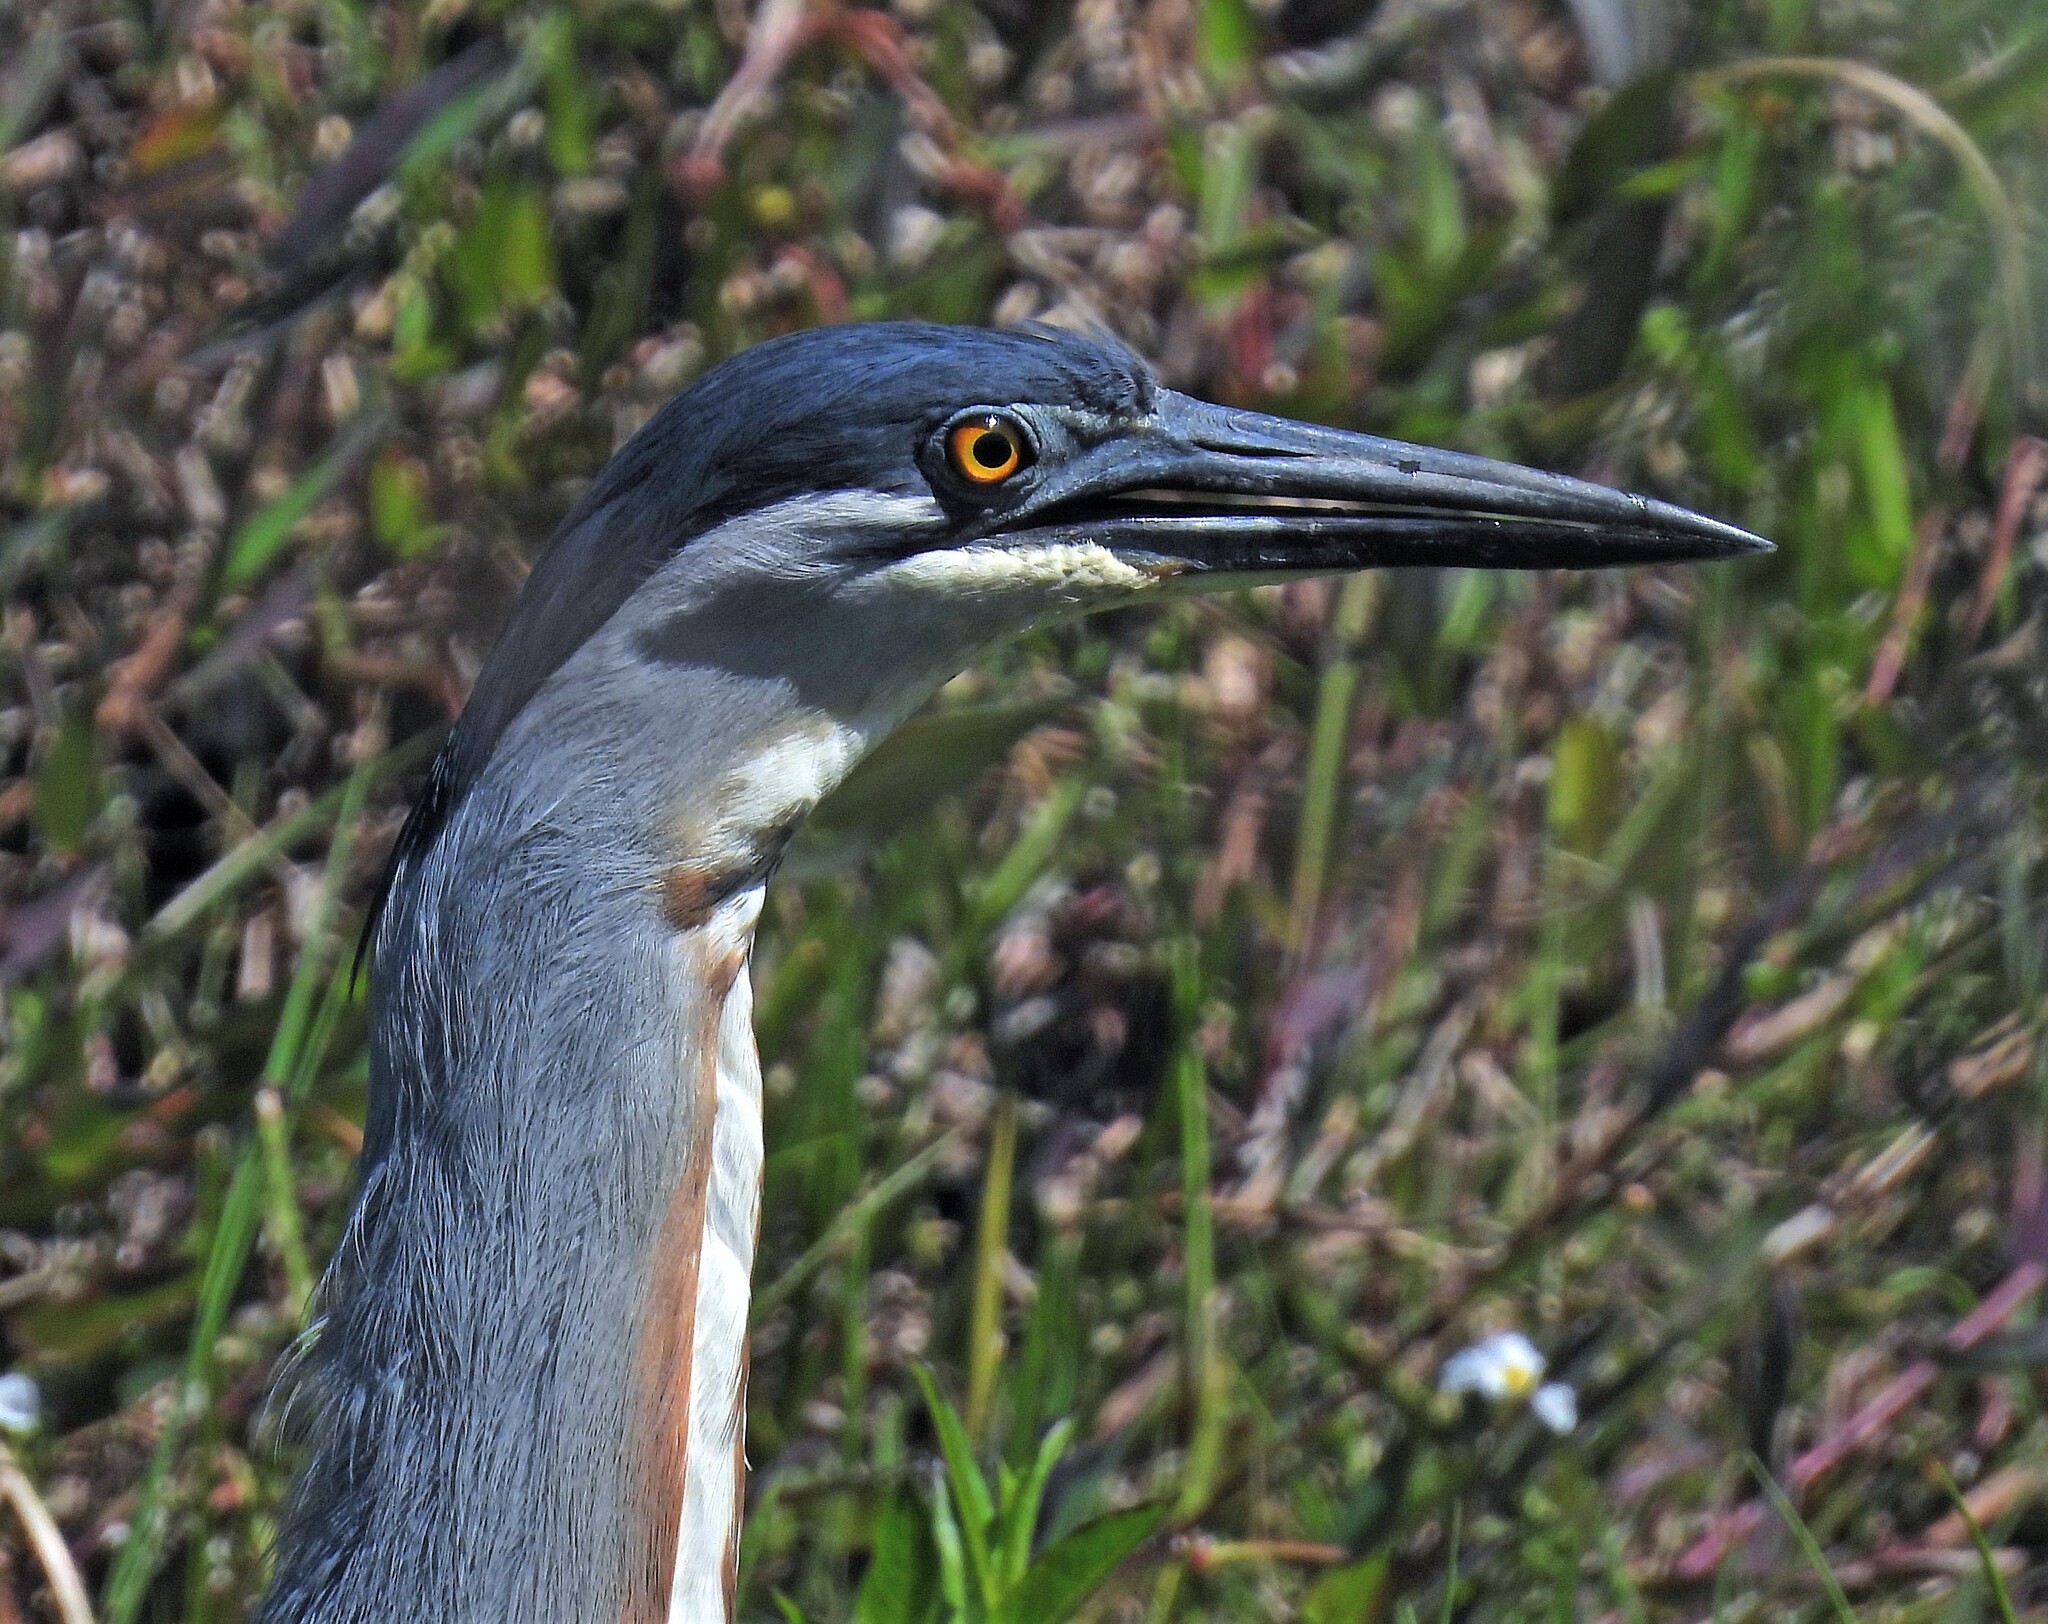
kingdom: Animalia
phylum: Chordata
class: Aves
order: Pelecaniformes
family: Ardeidae
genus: Butorides
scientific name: Butorides striata
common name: Striated heron
